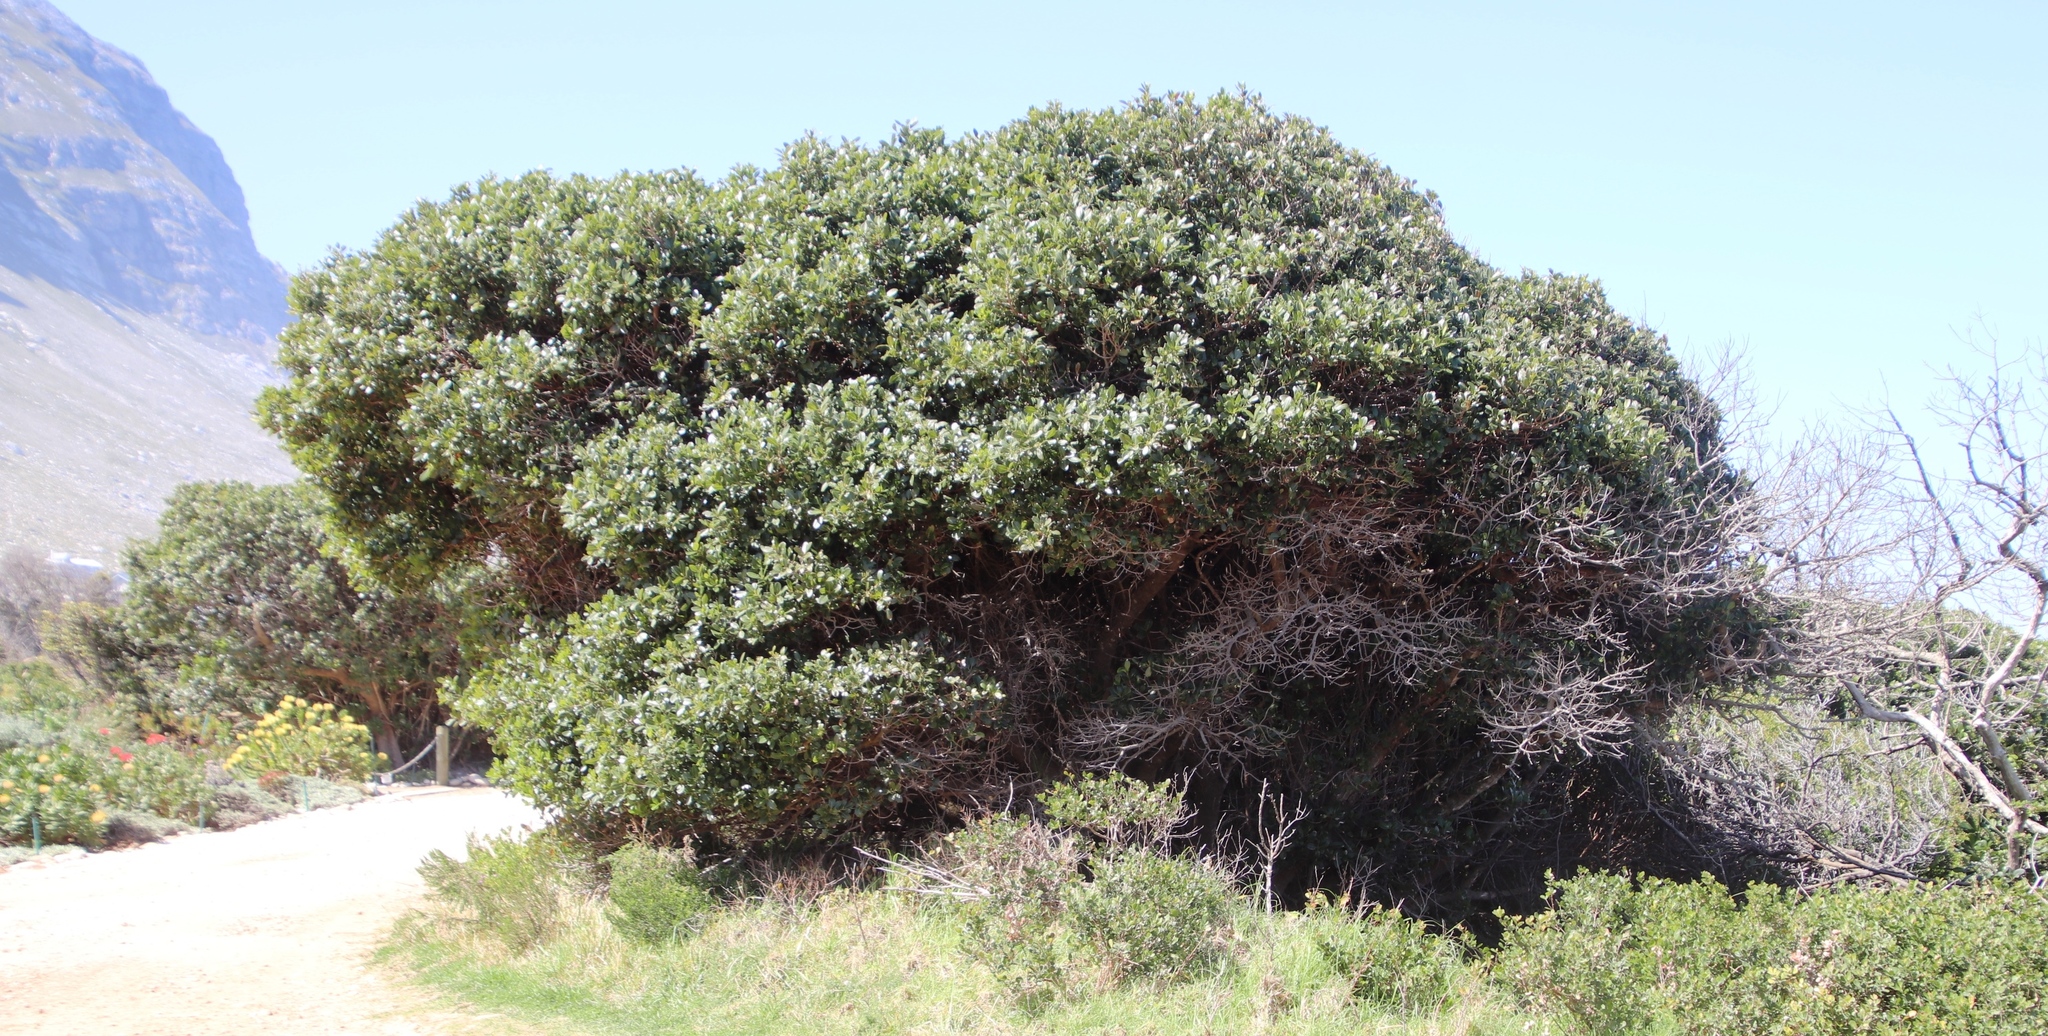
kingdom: Plantae
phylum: Tracheophyta
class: Magnoliopsida
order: Ericales
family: Sapotaceae
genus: Sideroxylon
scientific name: Sideroxylon inerme
